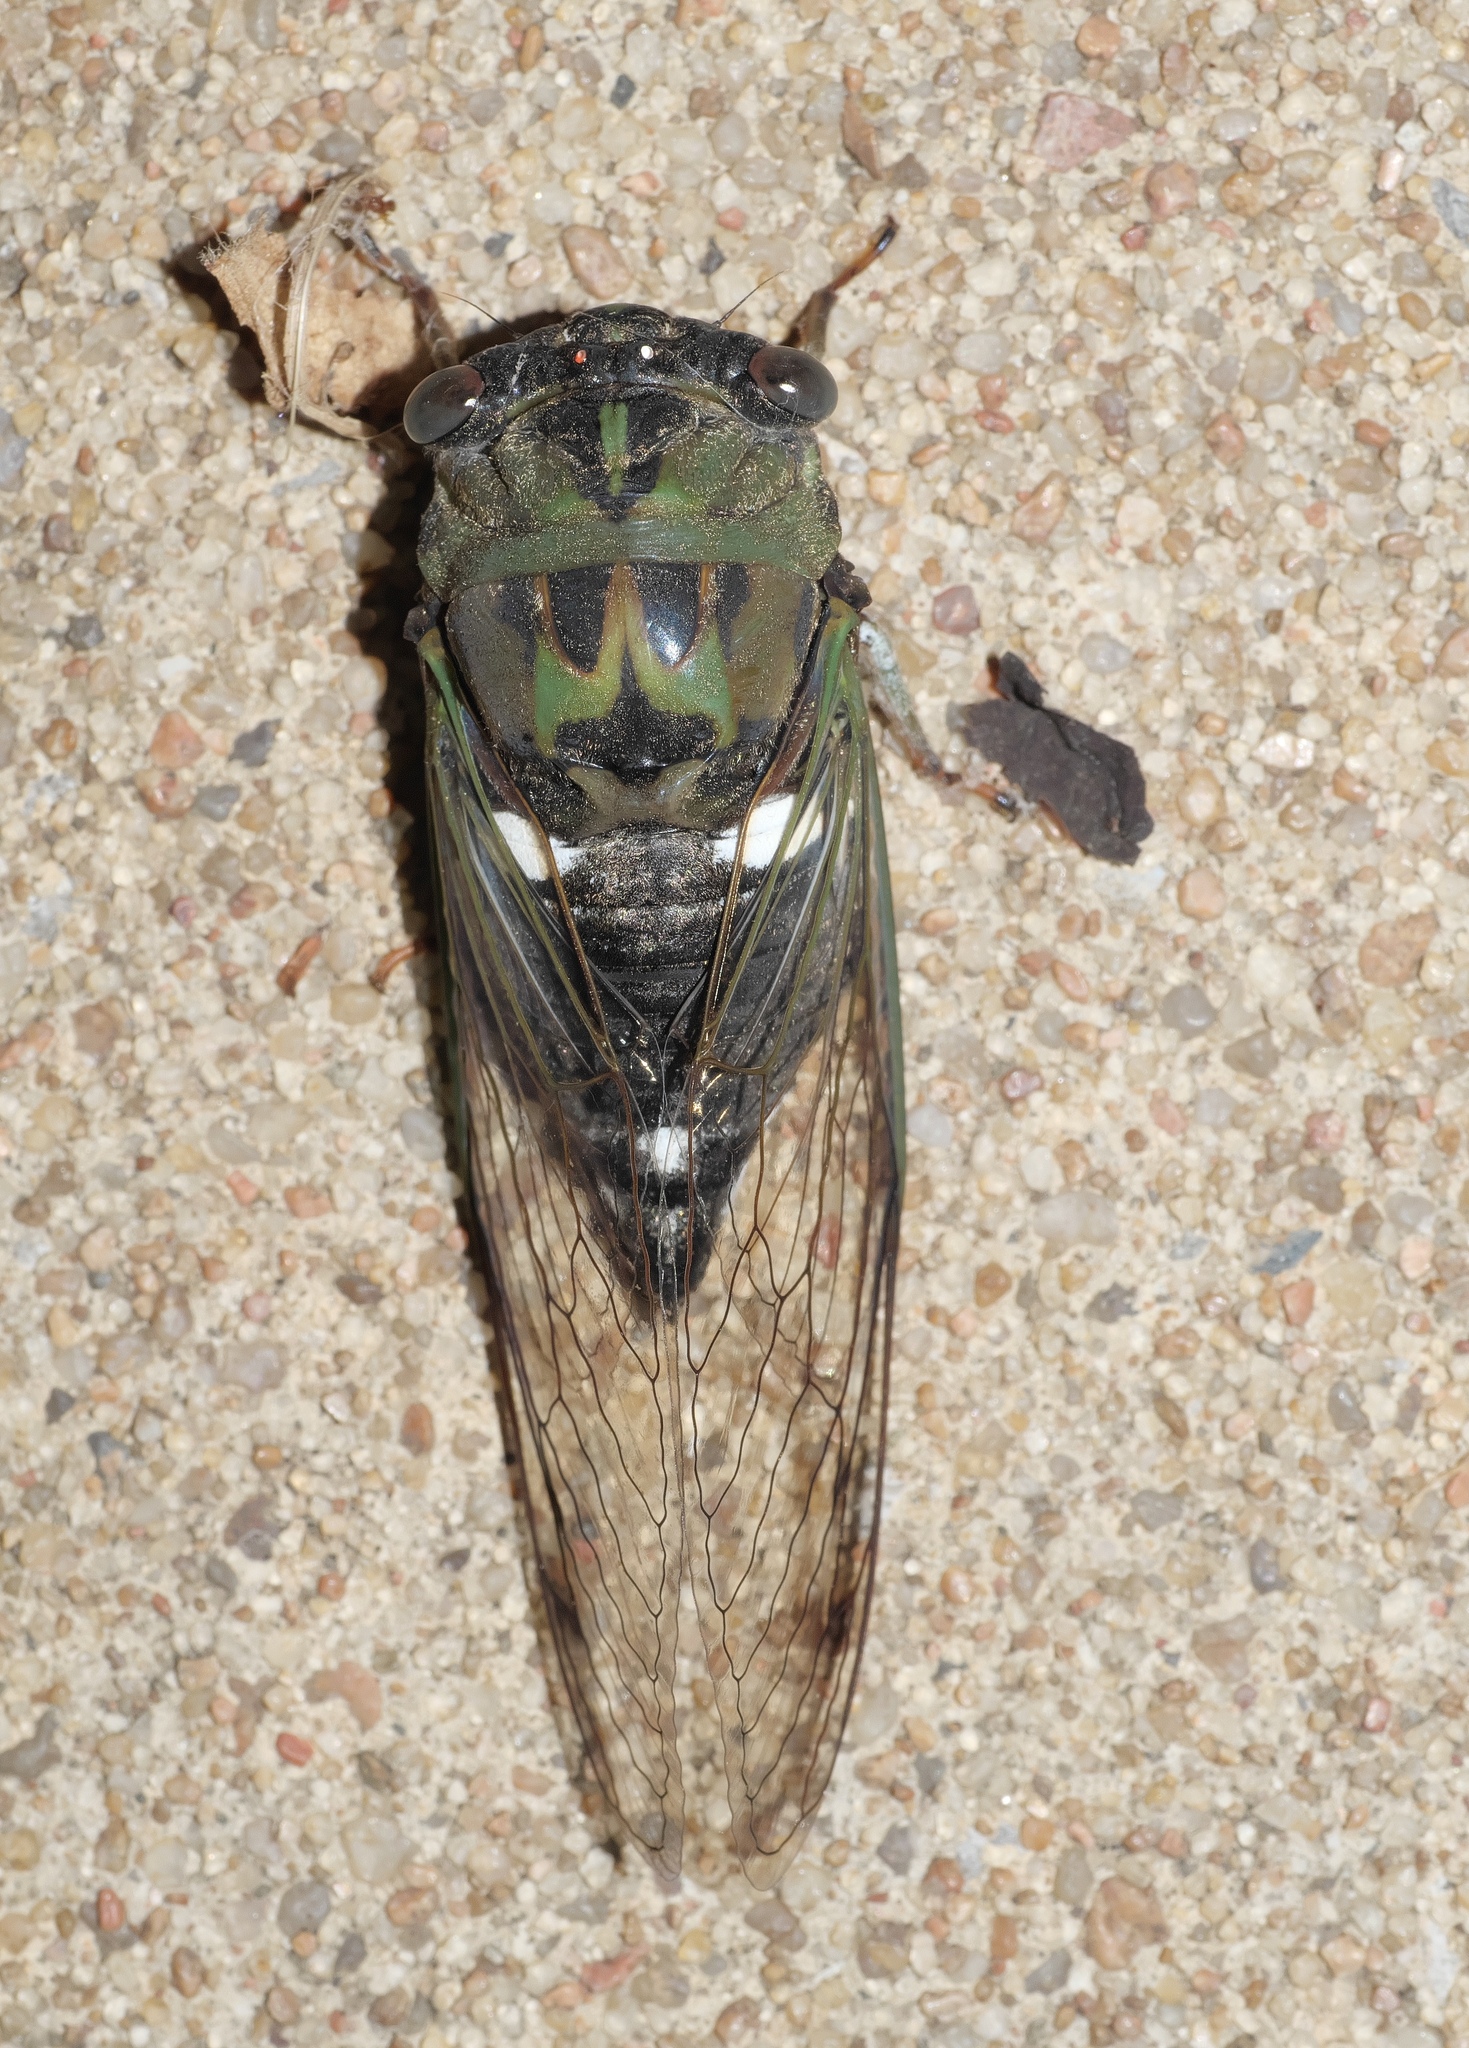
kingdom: Animalia
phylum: Arthropoda
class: Insecta
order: Hemiptera
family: Cicadidae
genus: Neotibicen
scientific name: Neotibicen pruinosus
